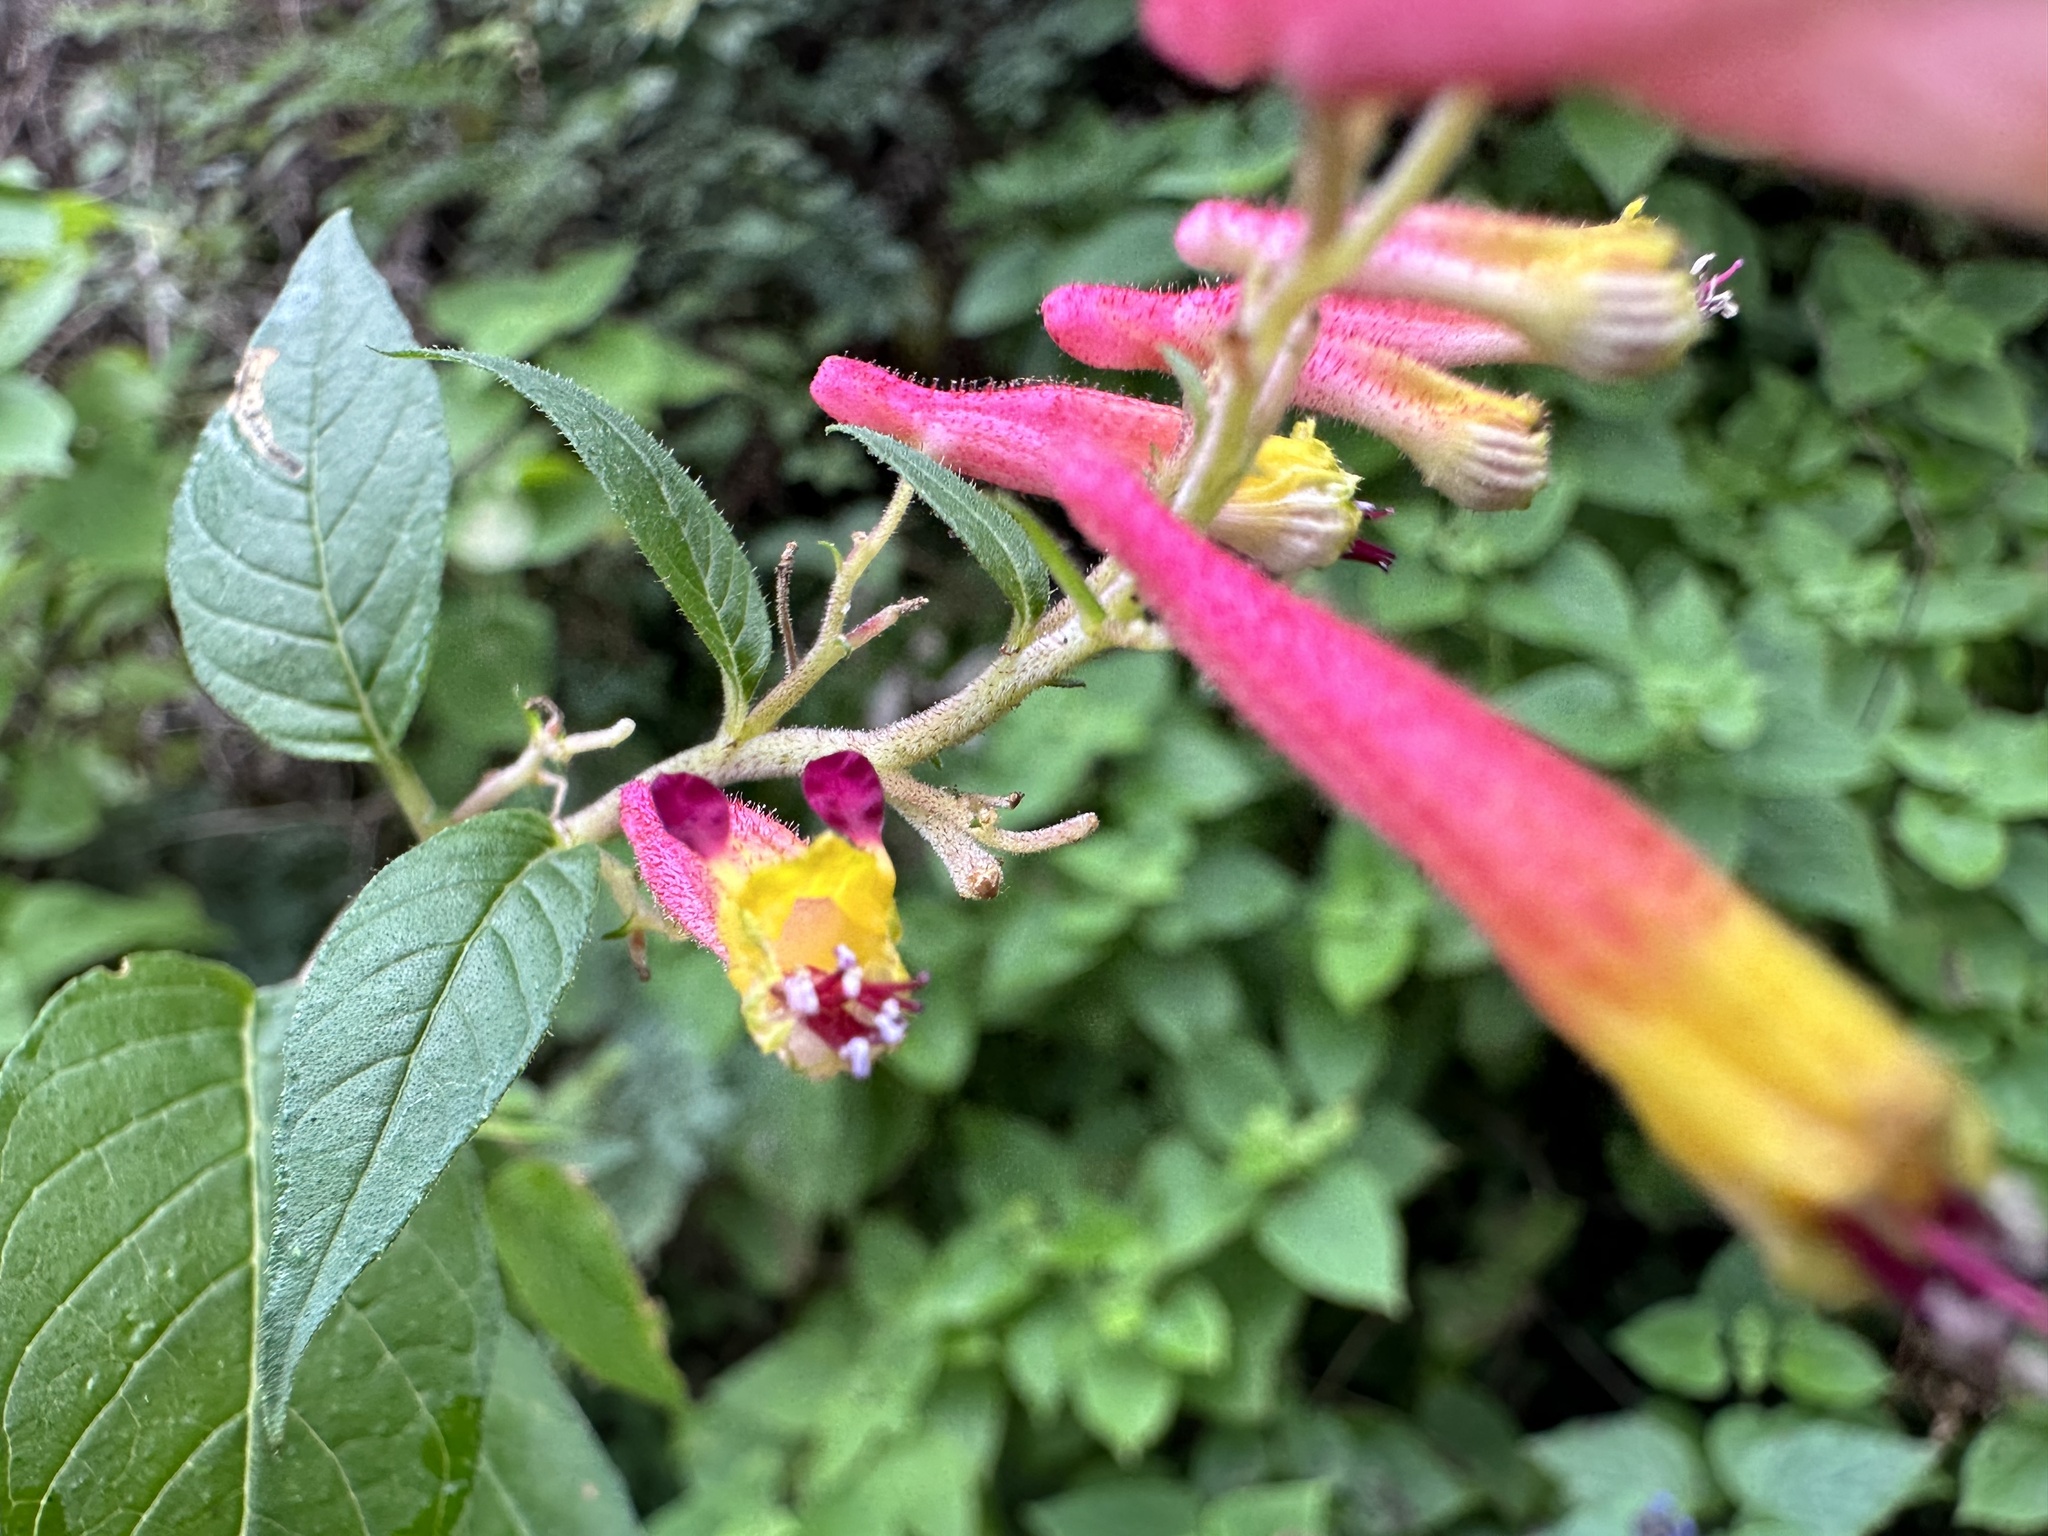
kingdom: Plantae
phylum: Tracheophyta
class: Magnoliopsida
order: Myrtales
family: Lythraceae
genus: Cuphea
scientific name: Cuphea cyanea
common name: Black-eyed cuphea
